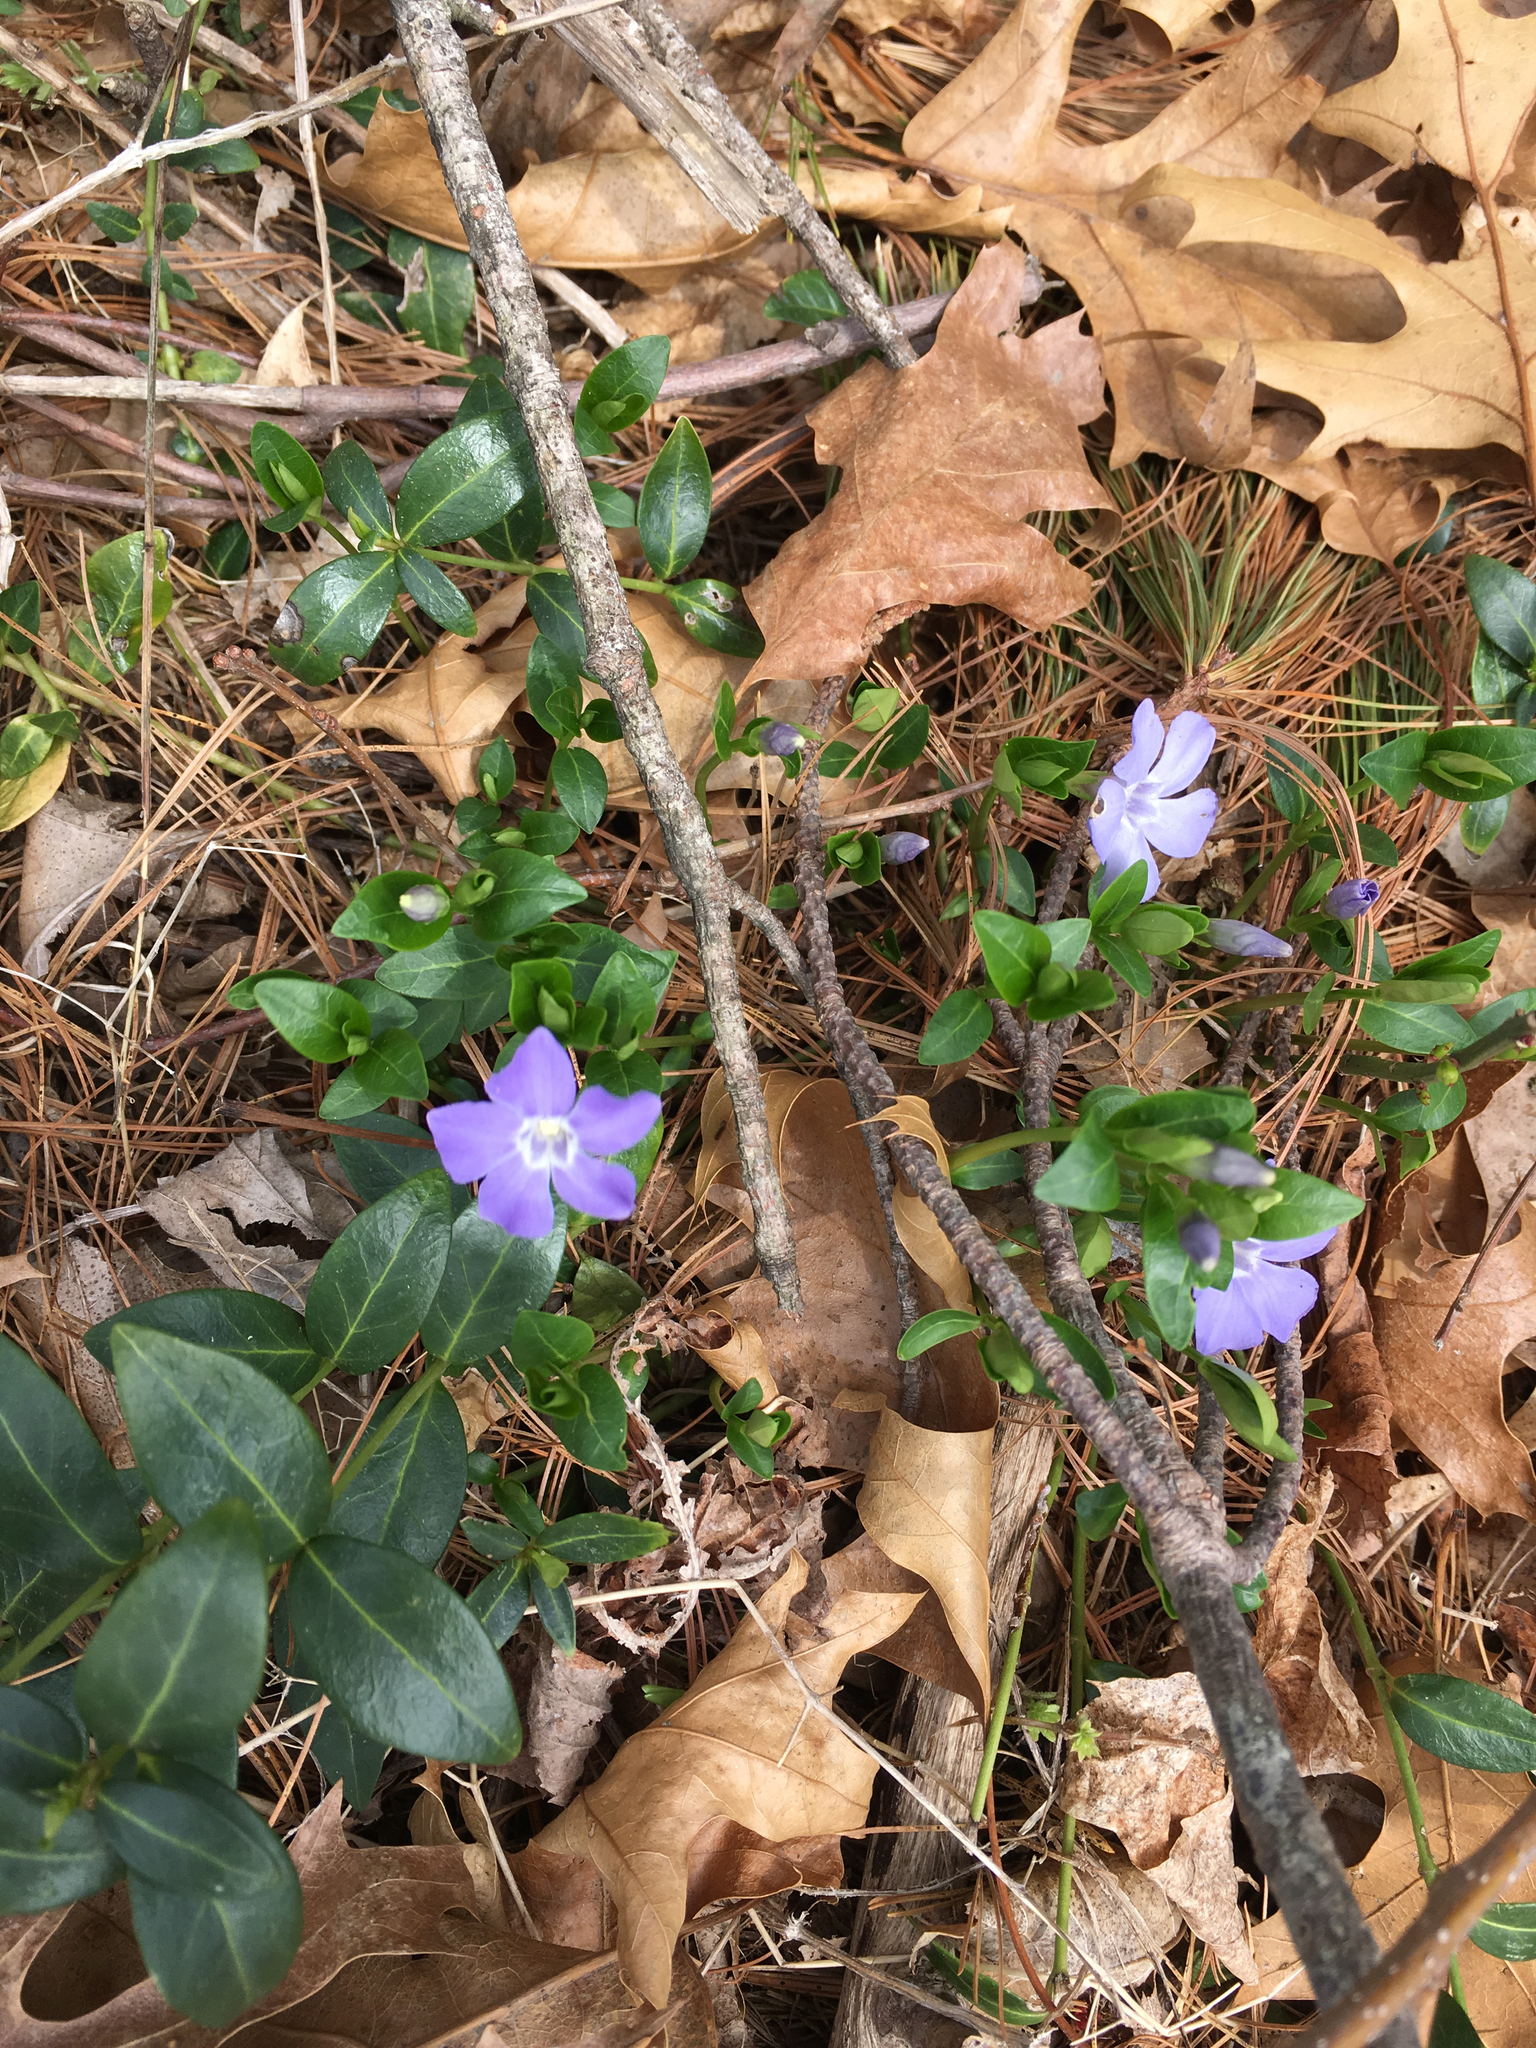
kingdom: Plantae
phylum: Tracheophyta
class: Magnoliopsida
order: Gentianales
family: Apocynaceae
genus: Vinca
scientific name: Vinca minor
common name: Lesser periwinkle
